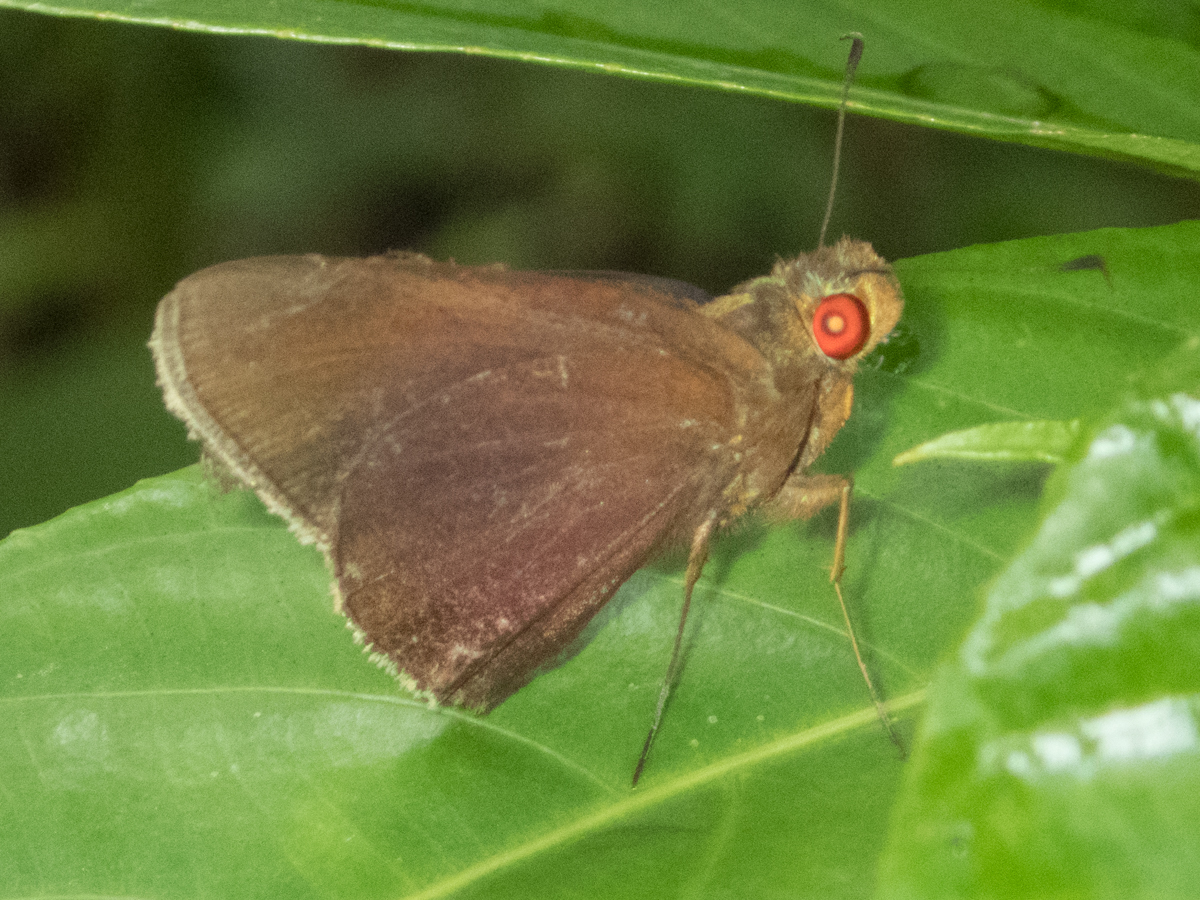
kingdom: Animalia
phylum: Arthropoda
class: Insecta
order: Lepidoptera
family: Hesperiidae
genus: Matapa
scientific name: Matapa aria
